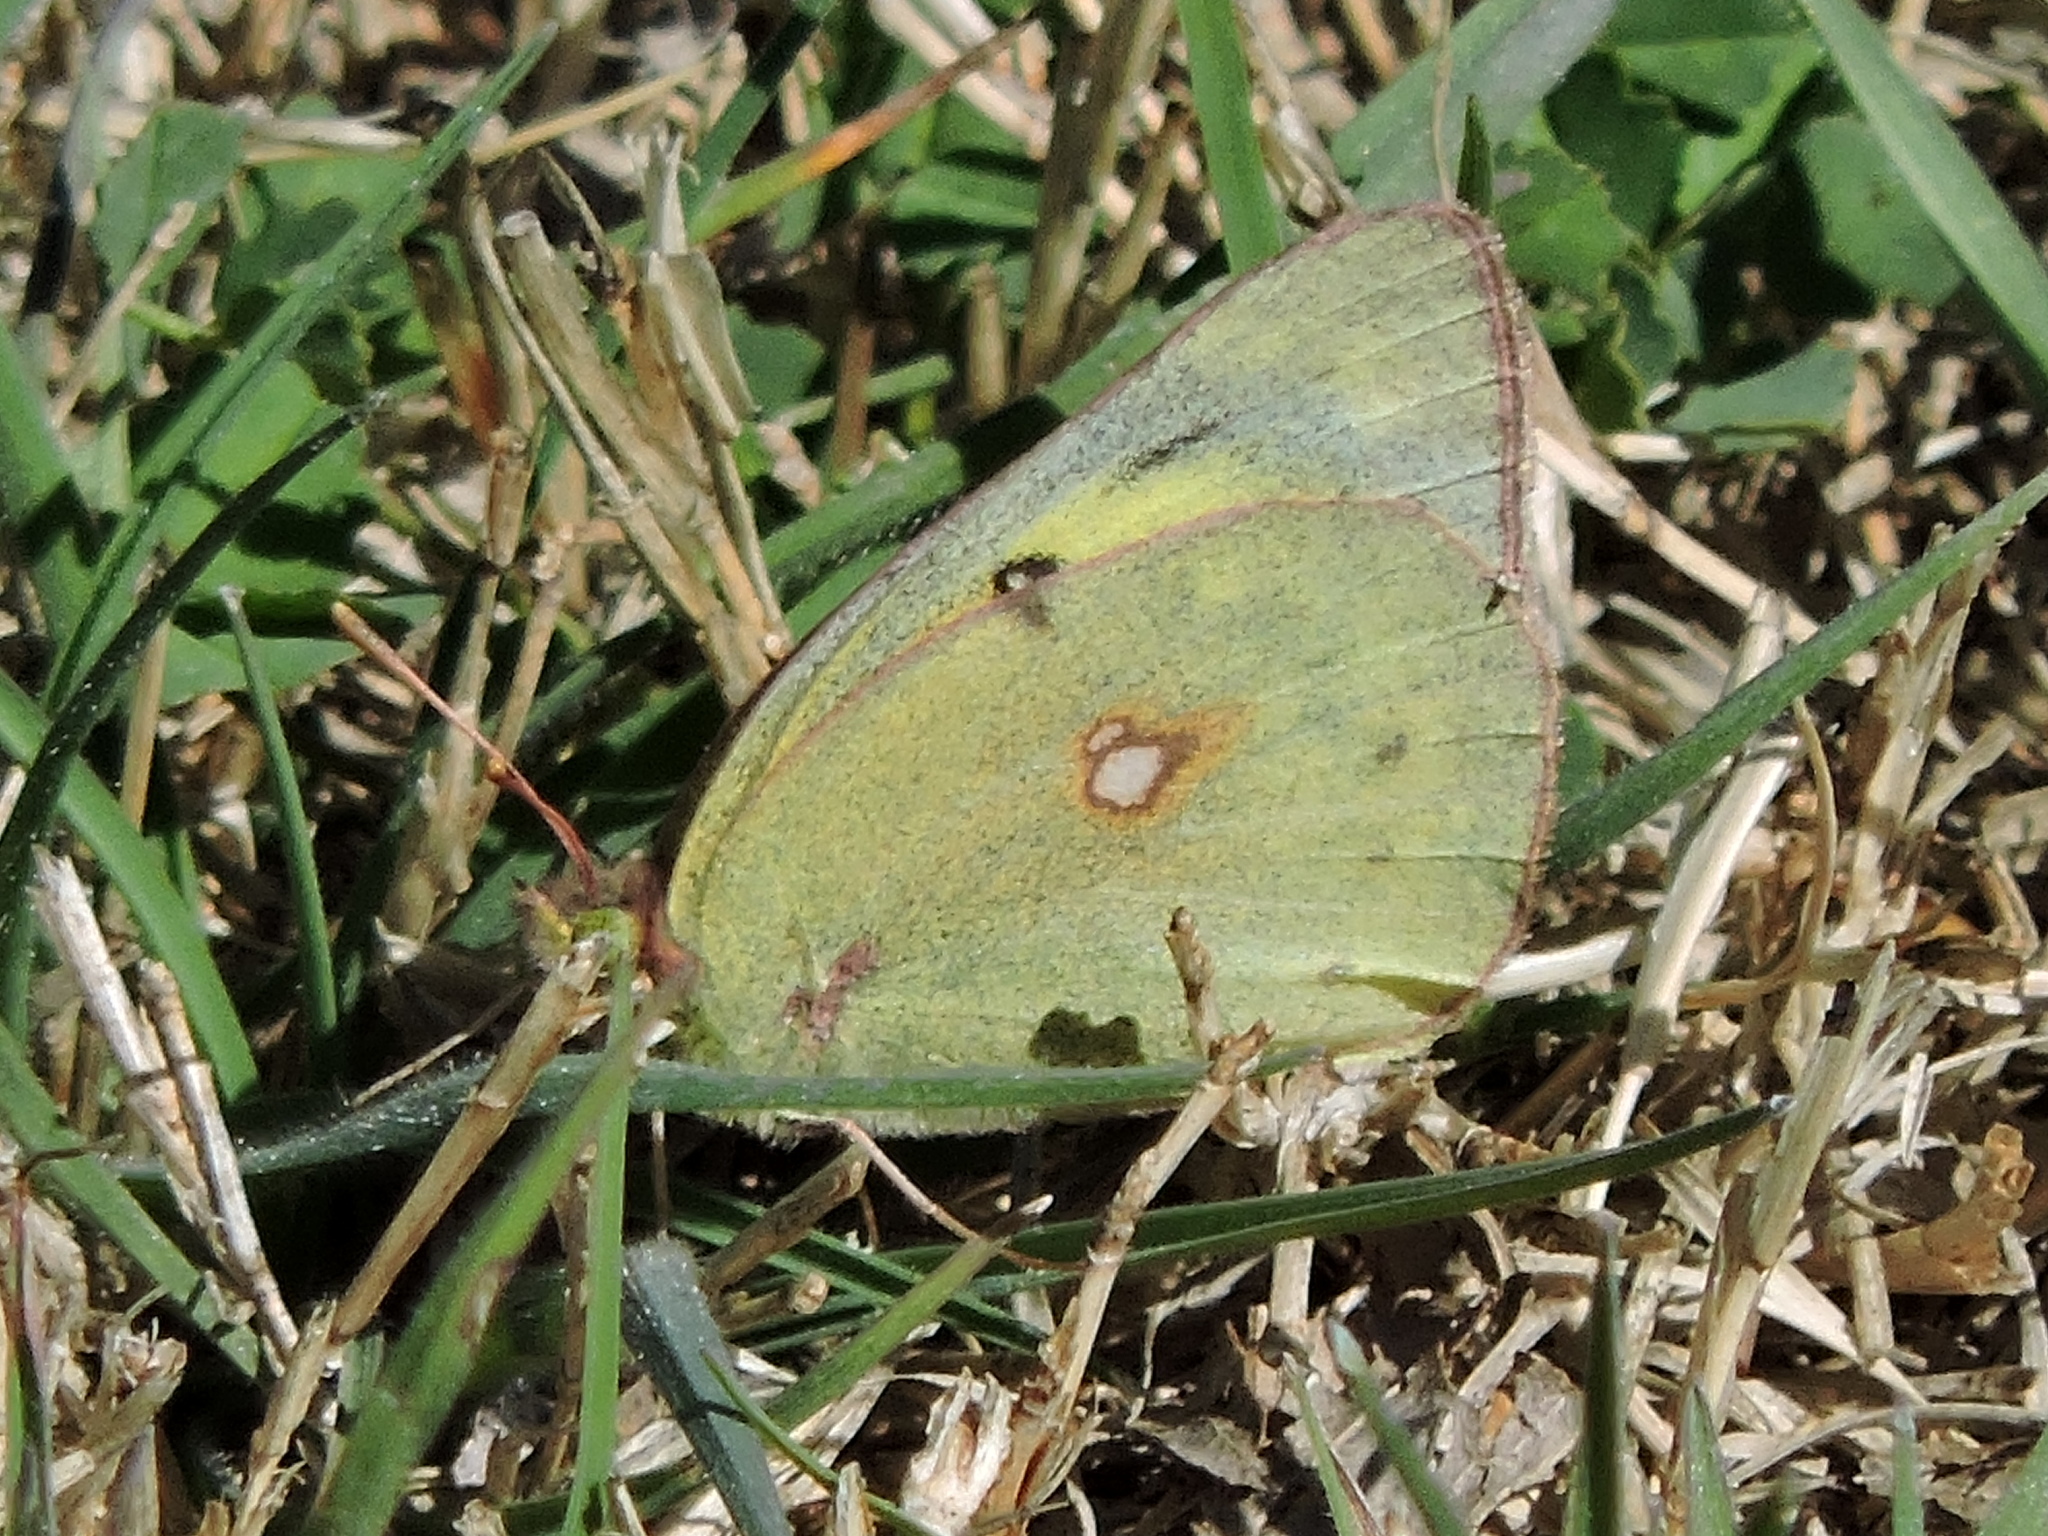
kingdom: Animalia
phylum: Arthropoda
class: Insecta
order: Lepidoptera
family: Pieridae
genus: Colias
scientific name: Colias eurytheme
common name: Alfalfa butterfly
